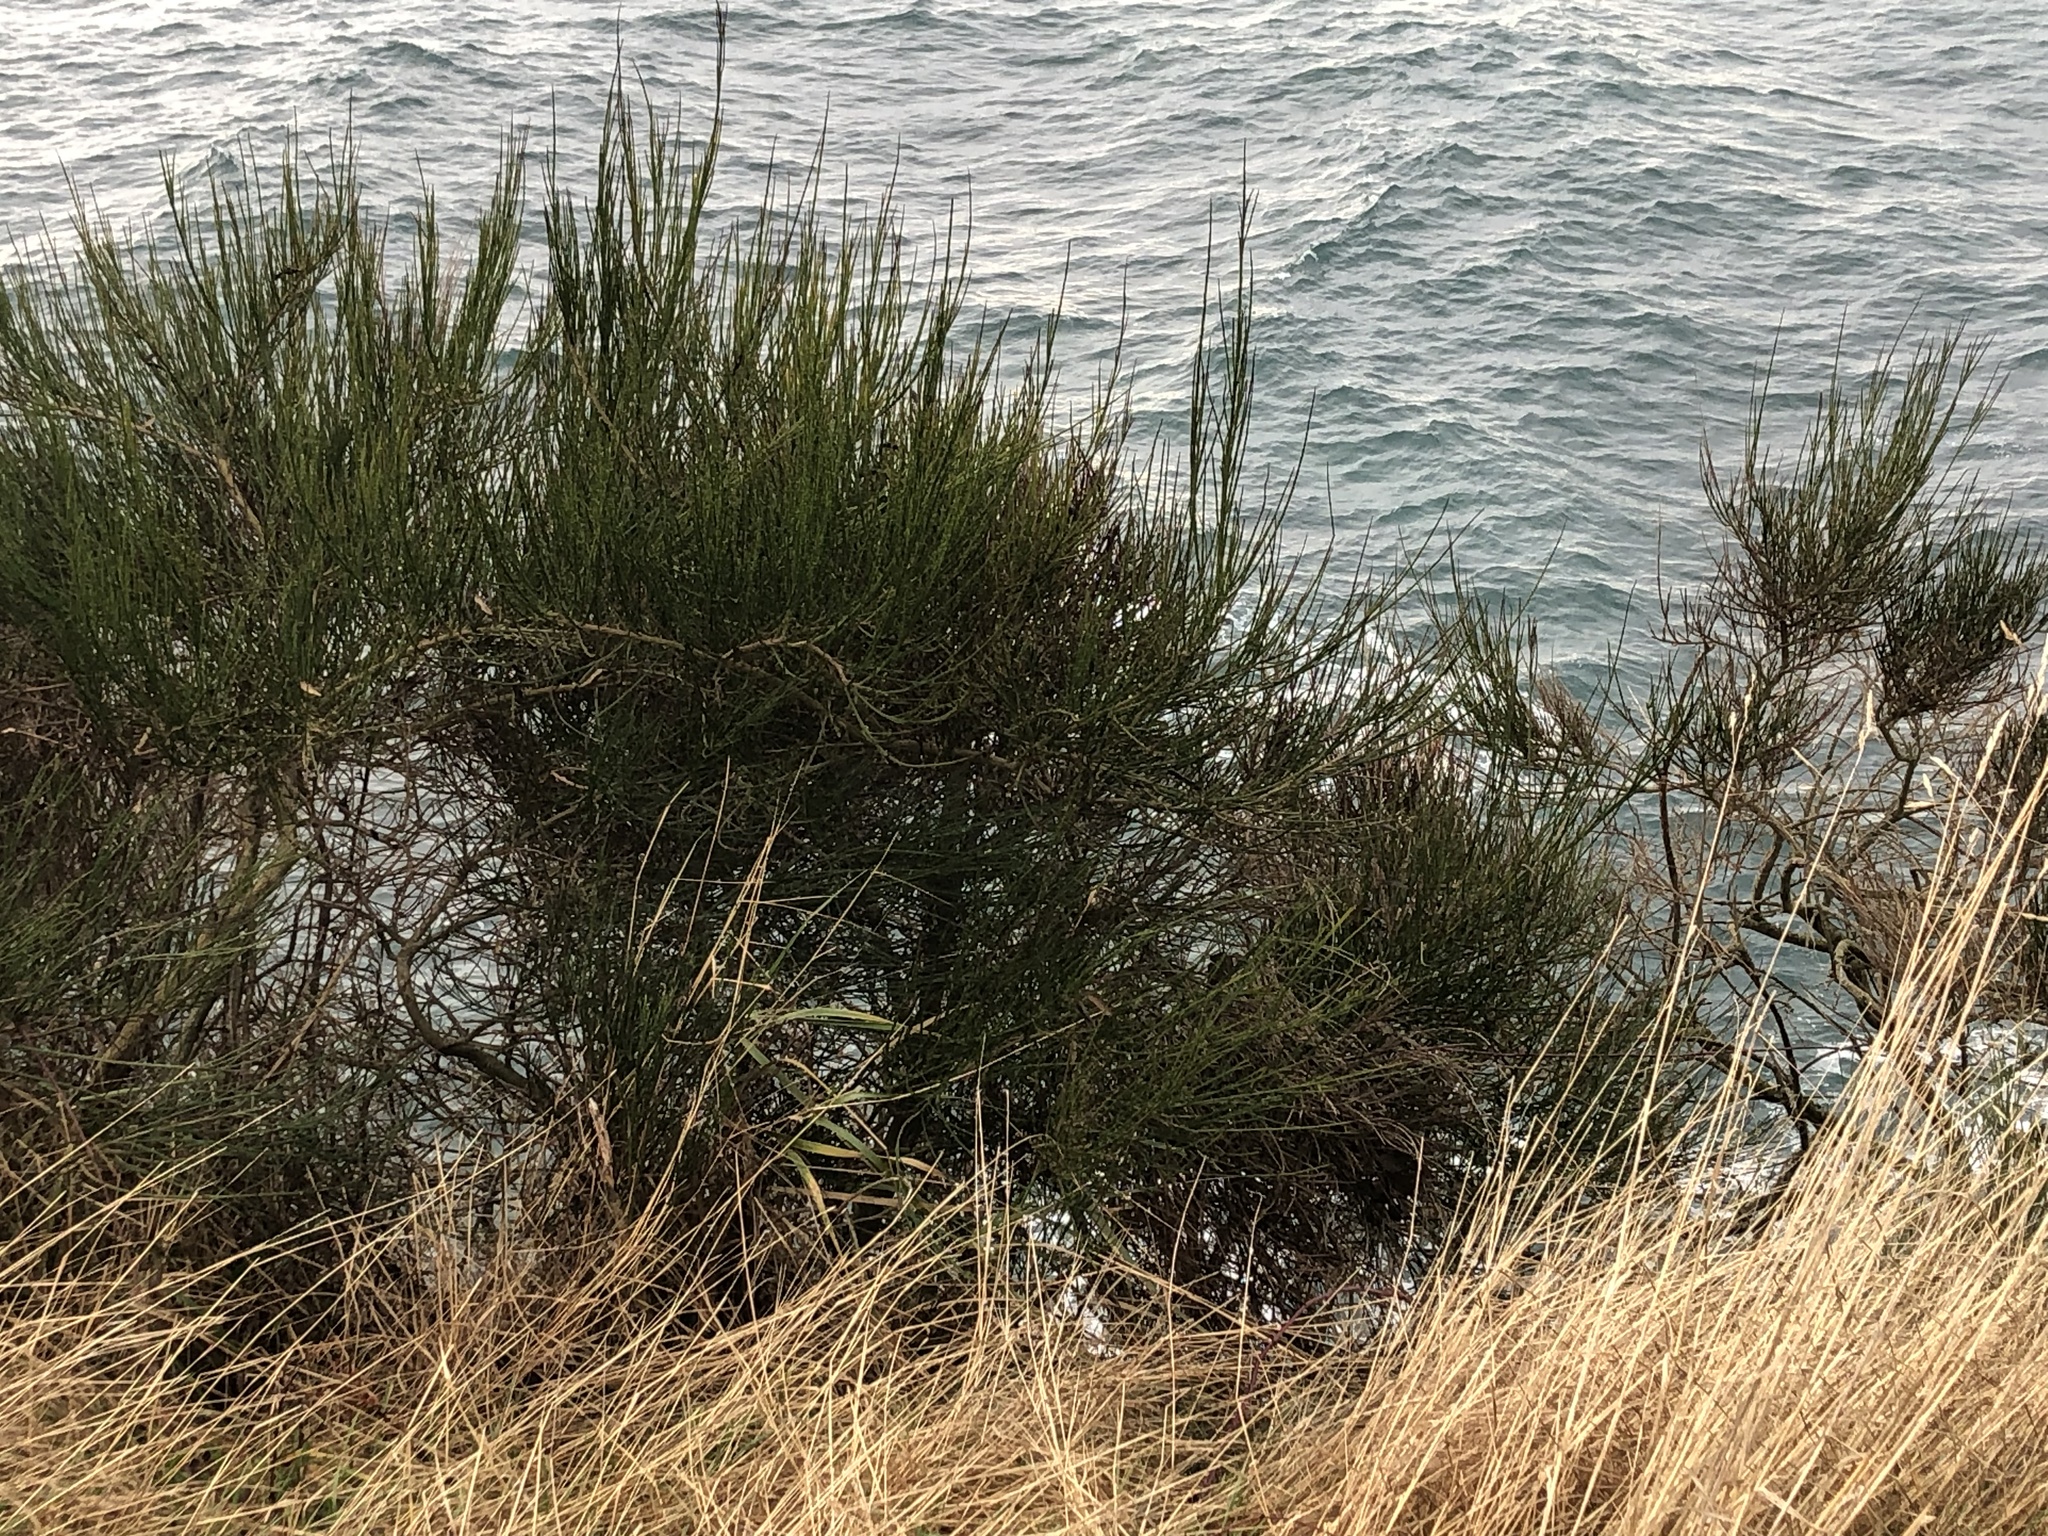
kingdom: Plantae
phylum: Tracheophyta
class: Magnoliopsida
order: Fabales
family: Fabaceae
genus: Cytisus
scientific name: Cytisus scoparius
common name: Scotch broom
